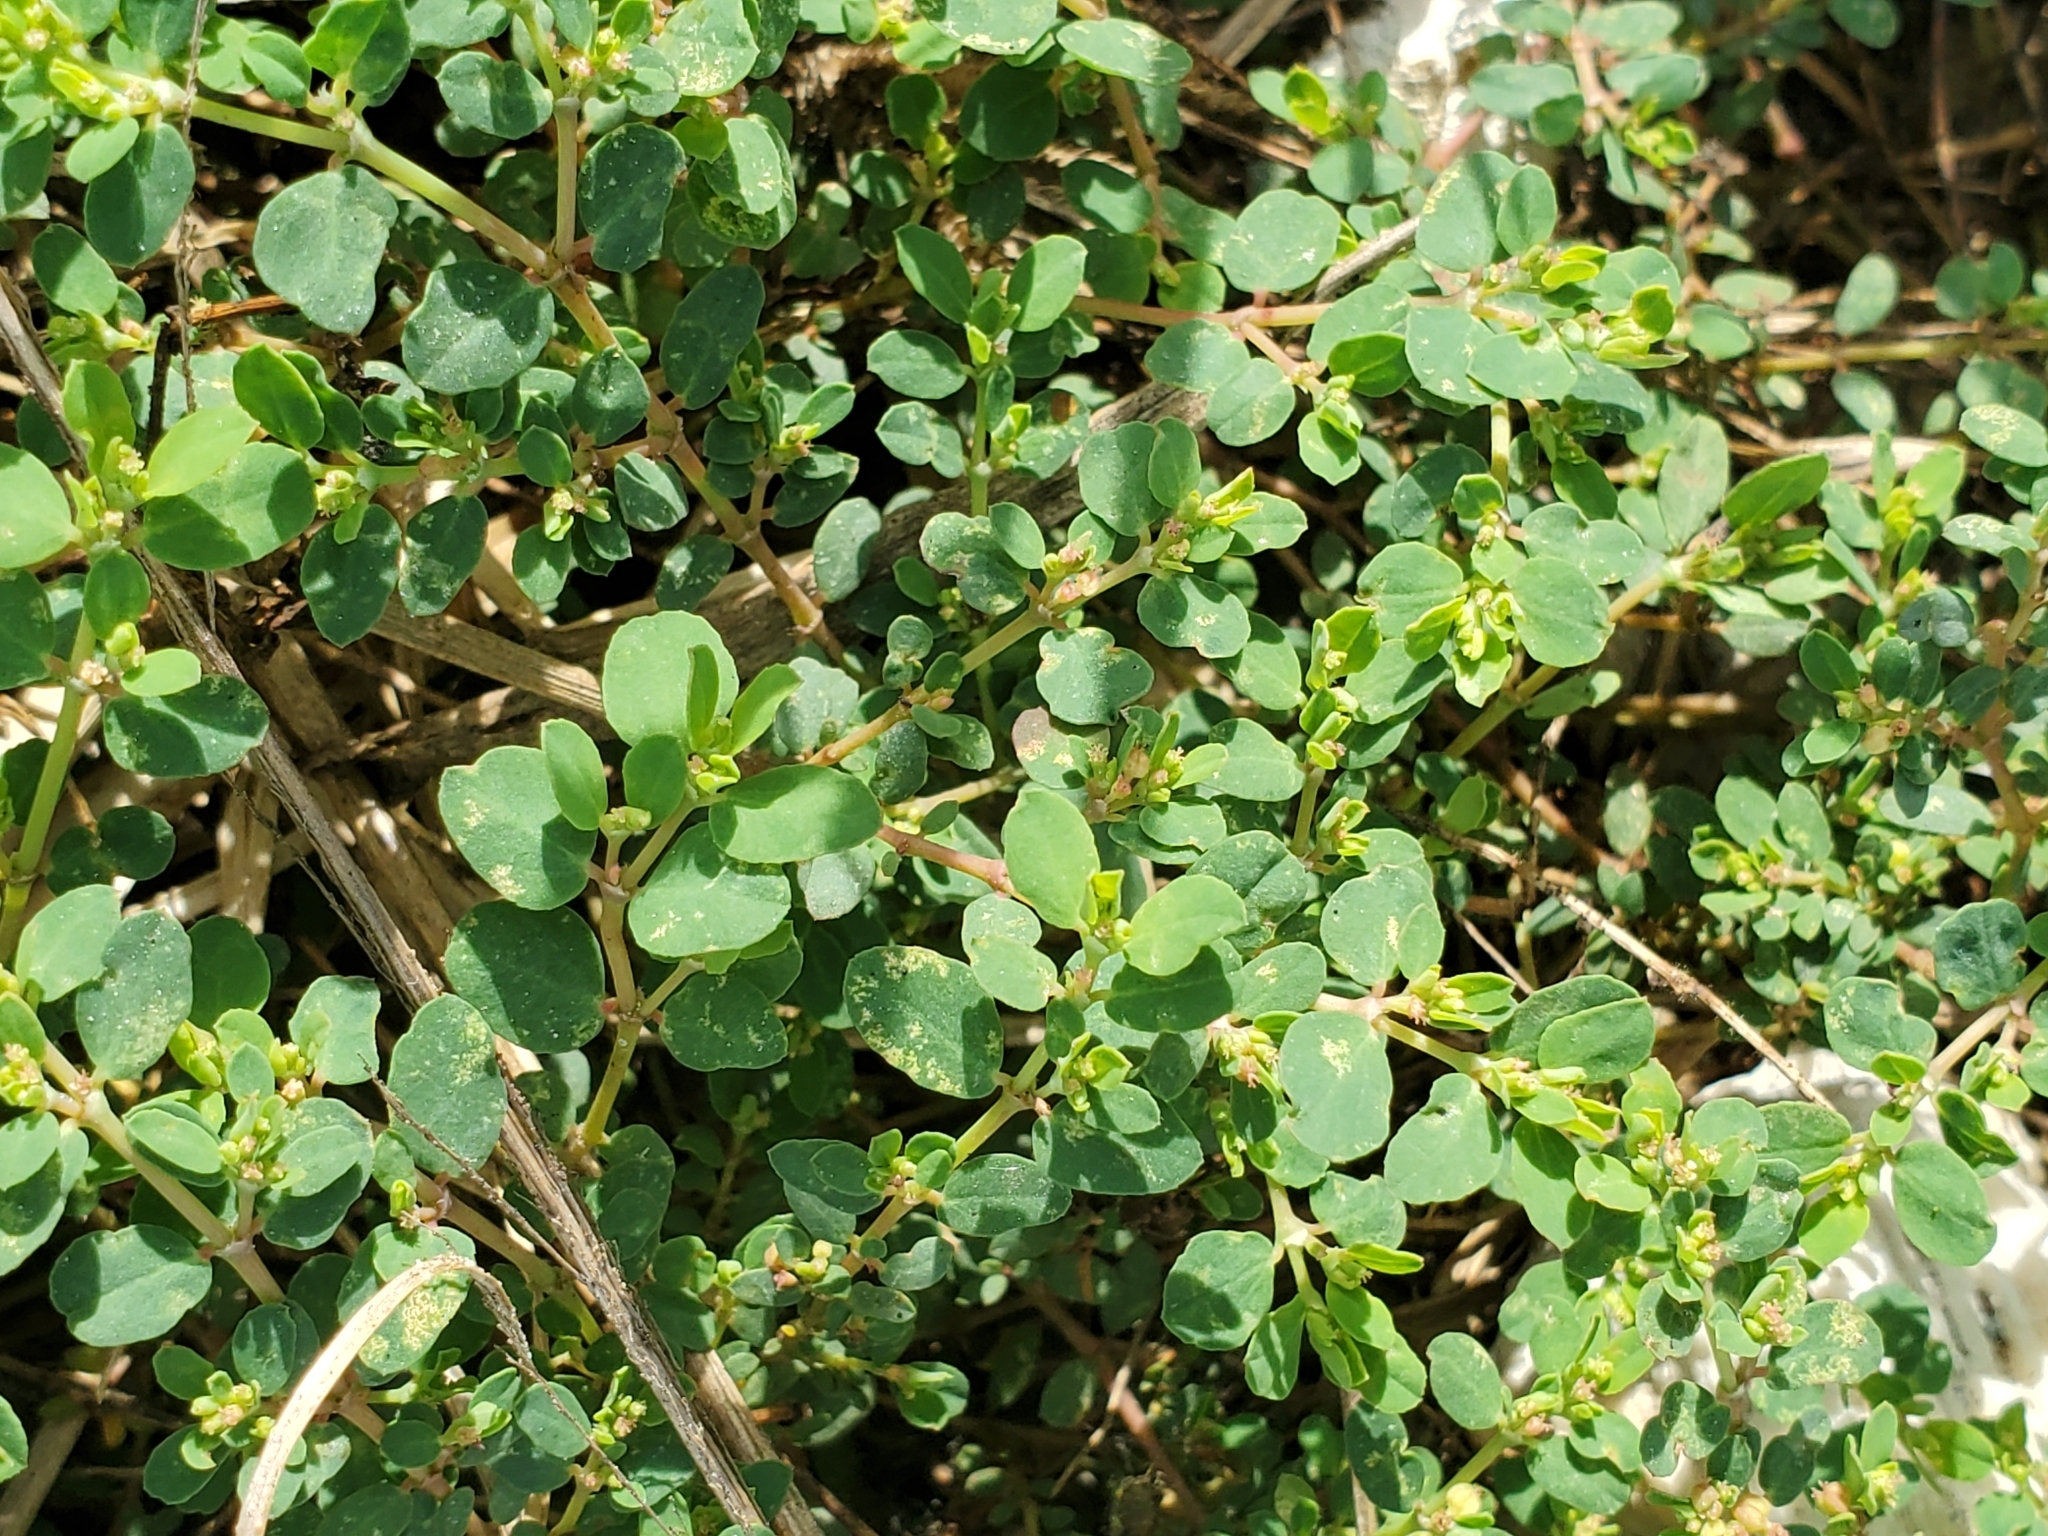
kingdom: Plantae
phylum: Tracheophyta
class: Magnoliopsida
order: Malpighiales
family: Euphorbiaceae
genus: Euphorbia
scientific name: Euphorbia blodgettii
